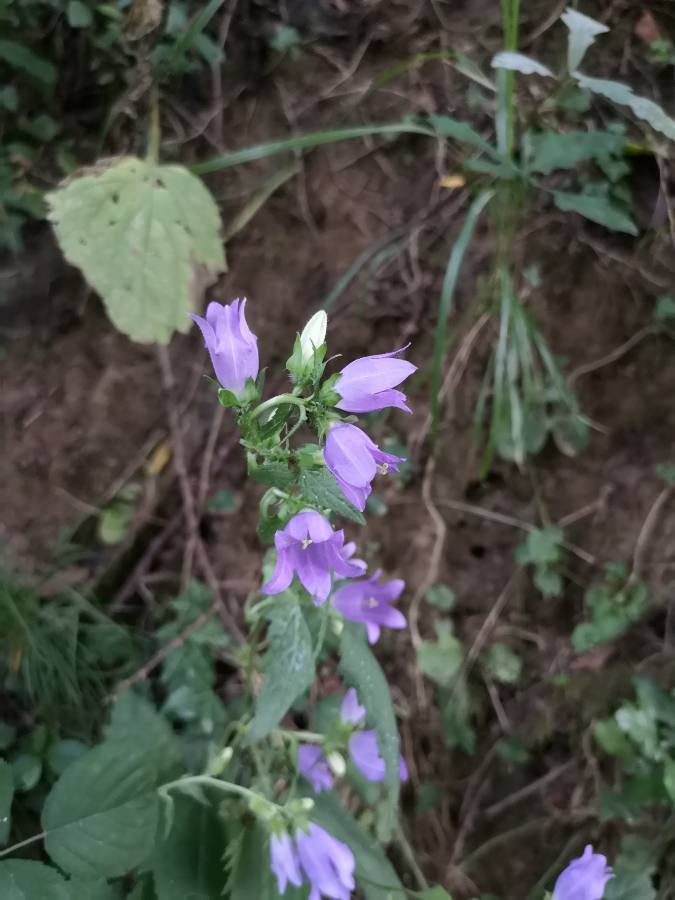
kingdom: Plantae
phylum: Tracheophyta
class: Magnoliopsida
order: Asterales
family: Campanulaceae
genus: Campanula
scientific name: Campanula trachelium
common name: Nettle-leaved bellflower
